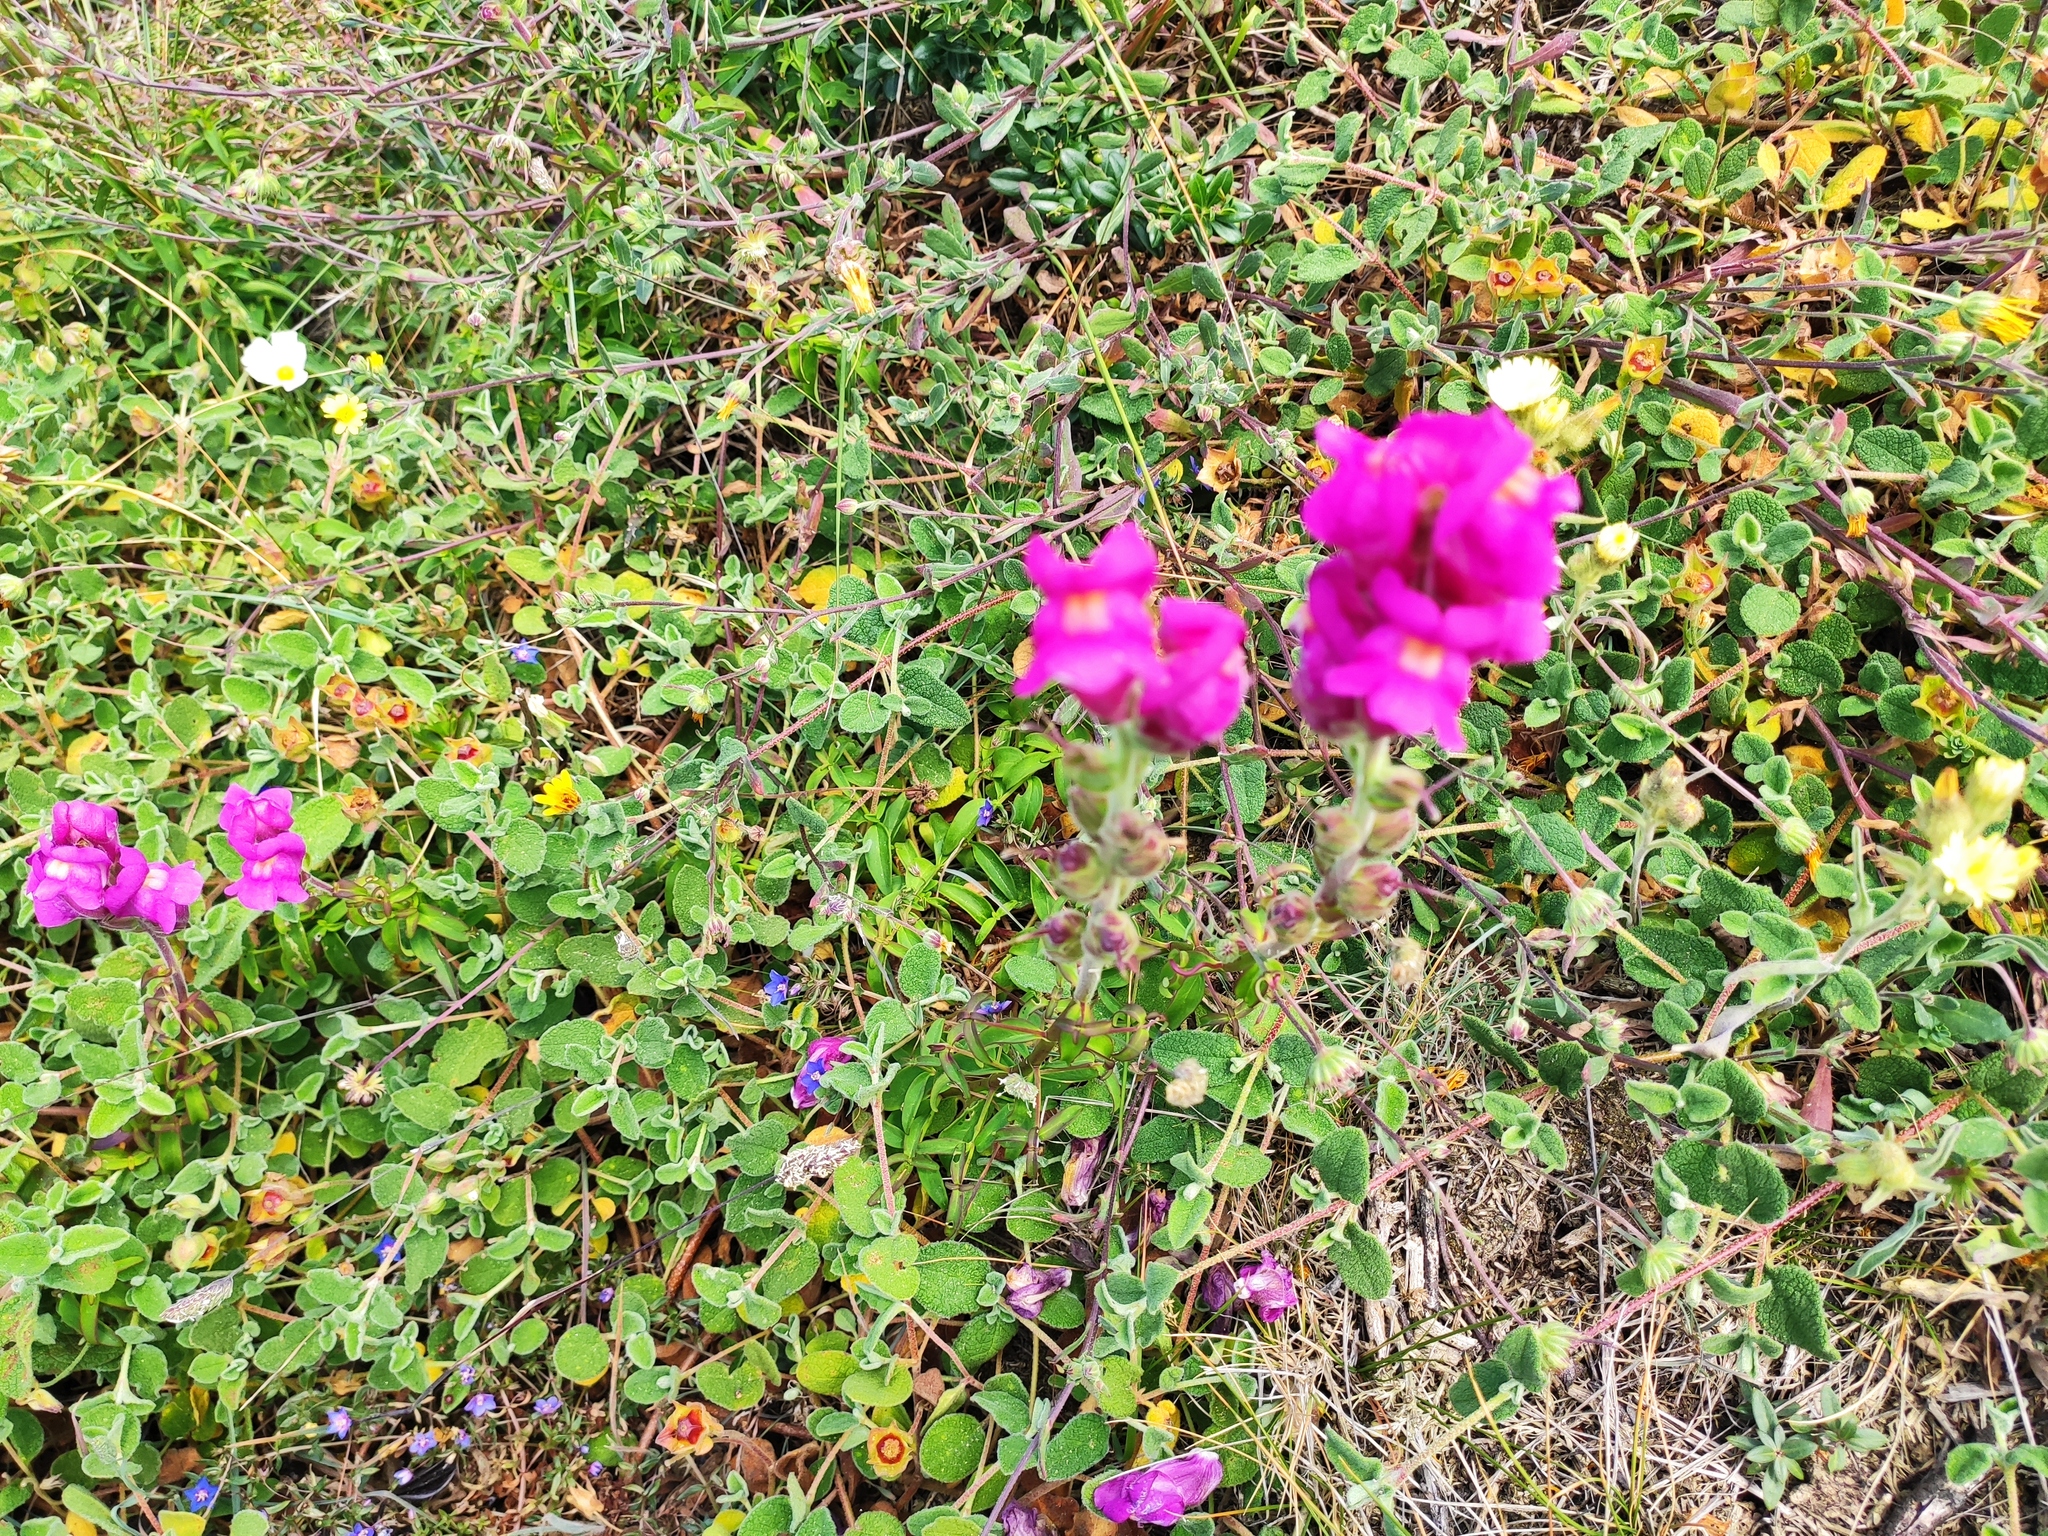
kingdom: Plantae
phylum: Tracheophyta
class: Magnoliopsida
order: Lamiales
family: Plantaginaceae
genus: Antirrhinum
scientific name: Antirrhinum cirrhigerum
